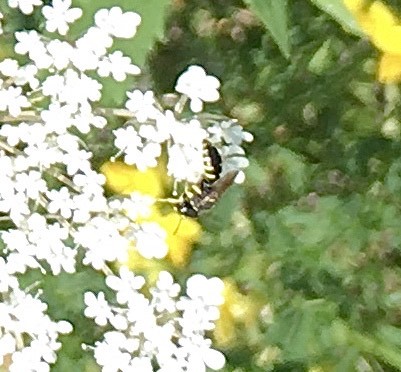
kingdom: Animalia
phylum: Arthropoda
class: Insecta
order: Hymenoptera
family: Crabronidae
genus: Ectemnius
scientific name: Ectemnius maculosus
